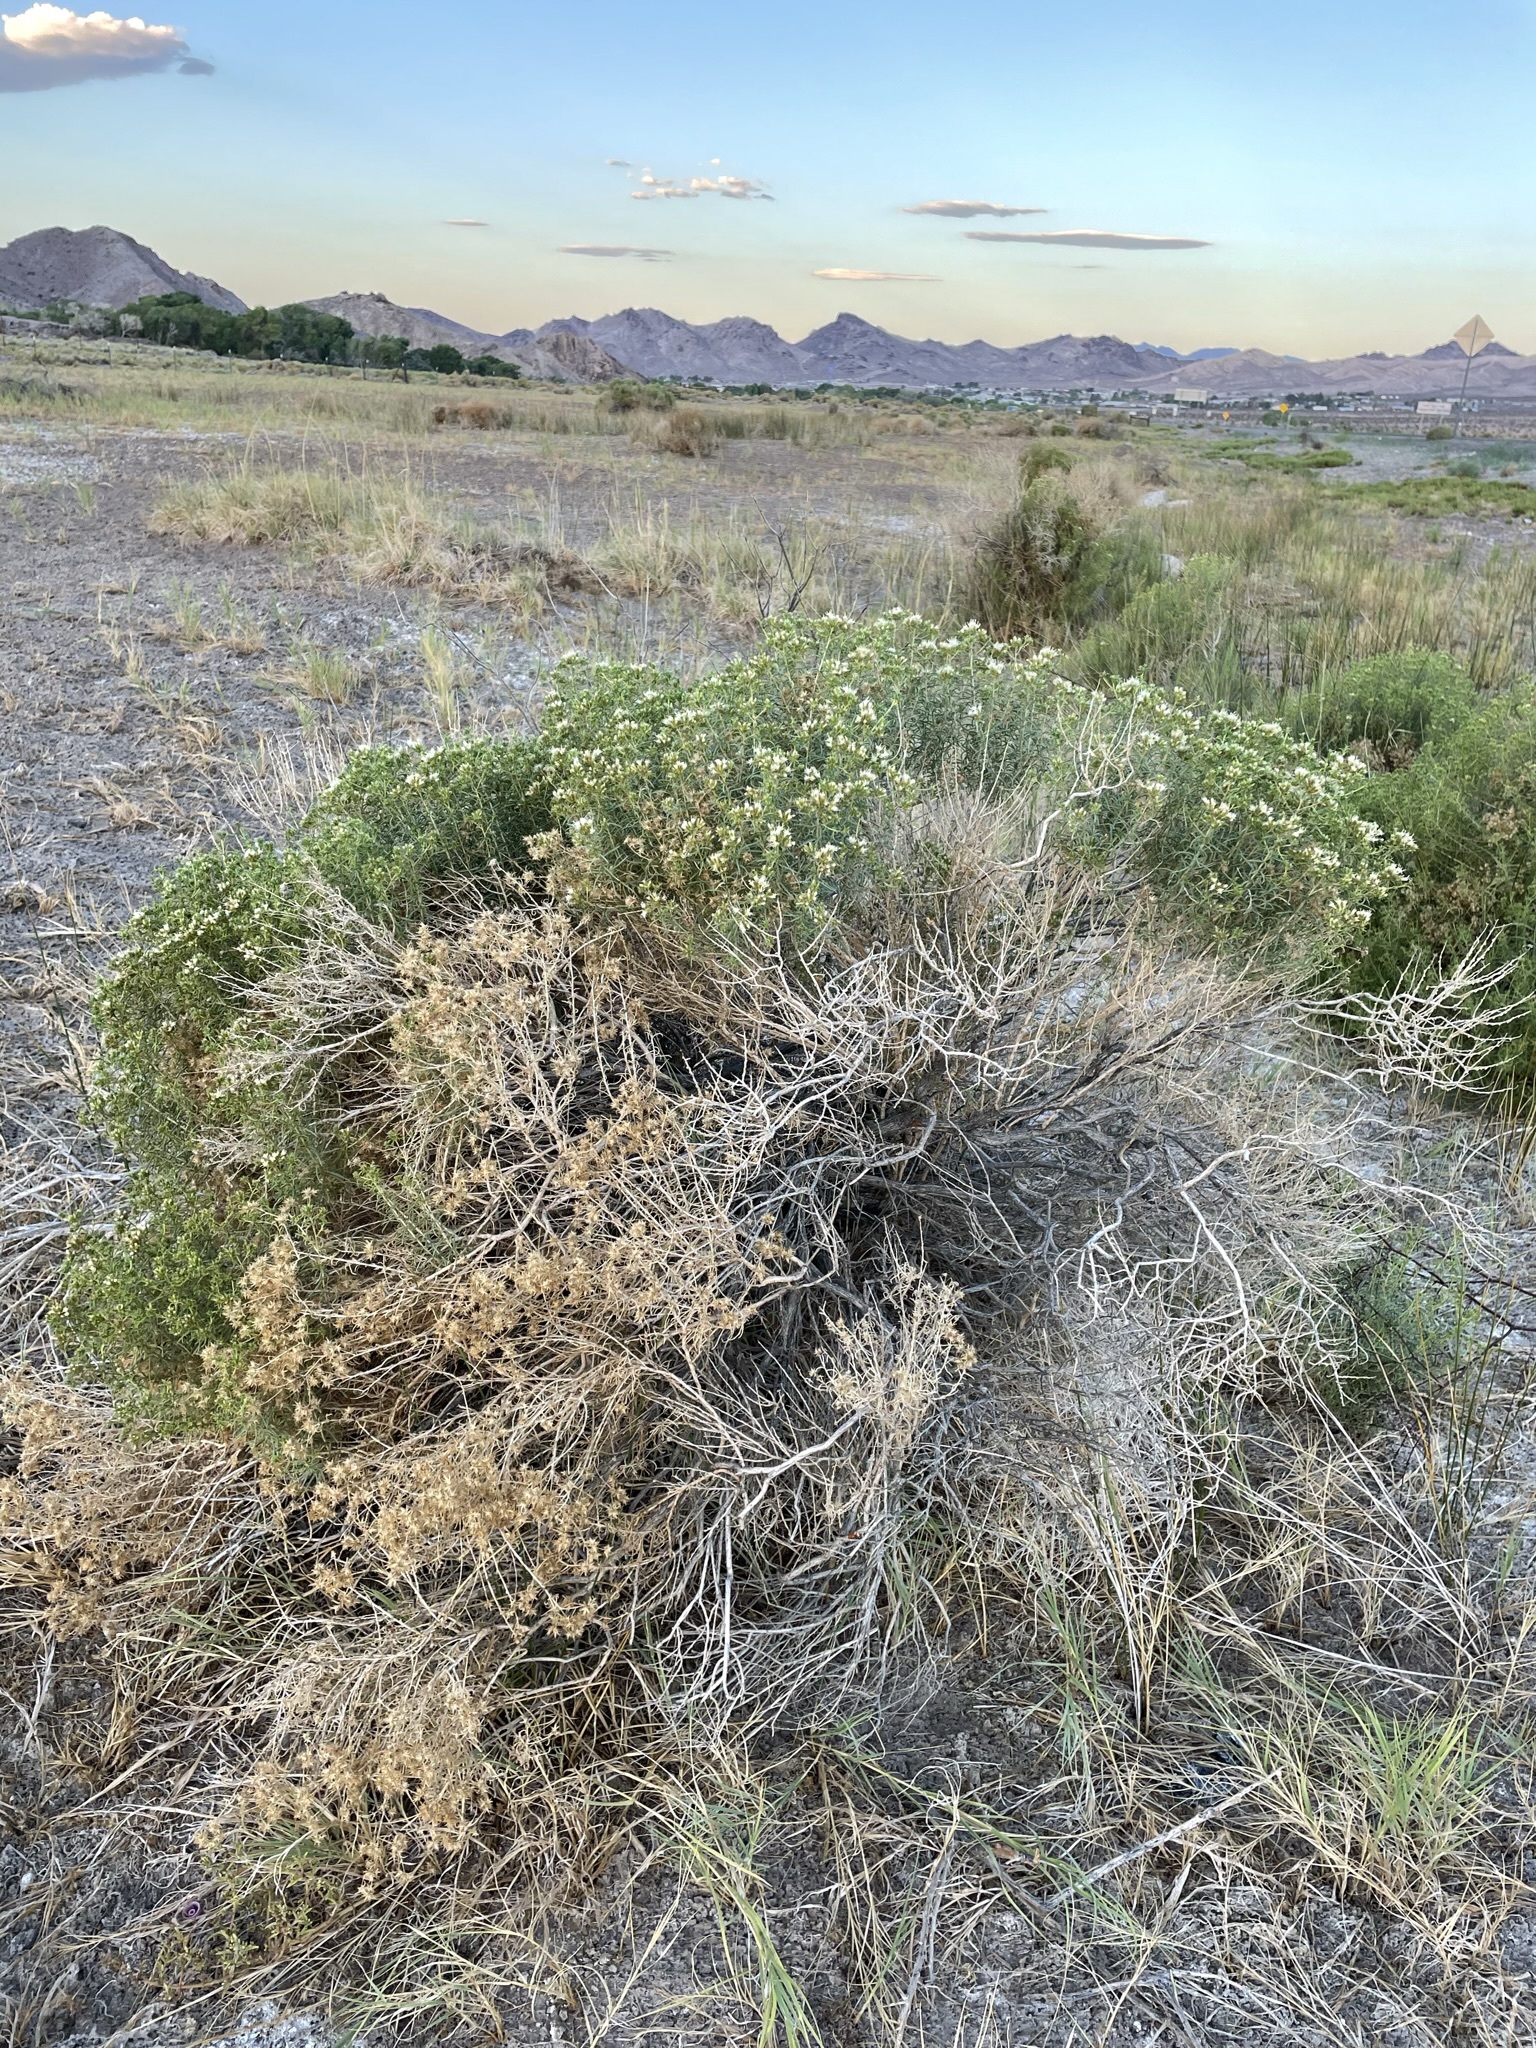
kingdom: Plantae
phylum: Tracheophyta
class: Magnoliopsida
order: Asterales
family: Asteraceae
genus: Ericameria
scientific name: Ericameria albida
